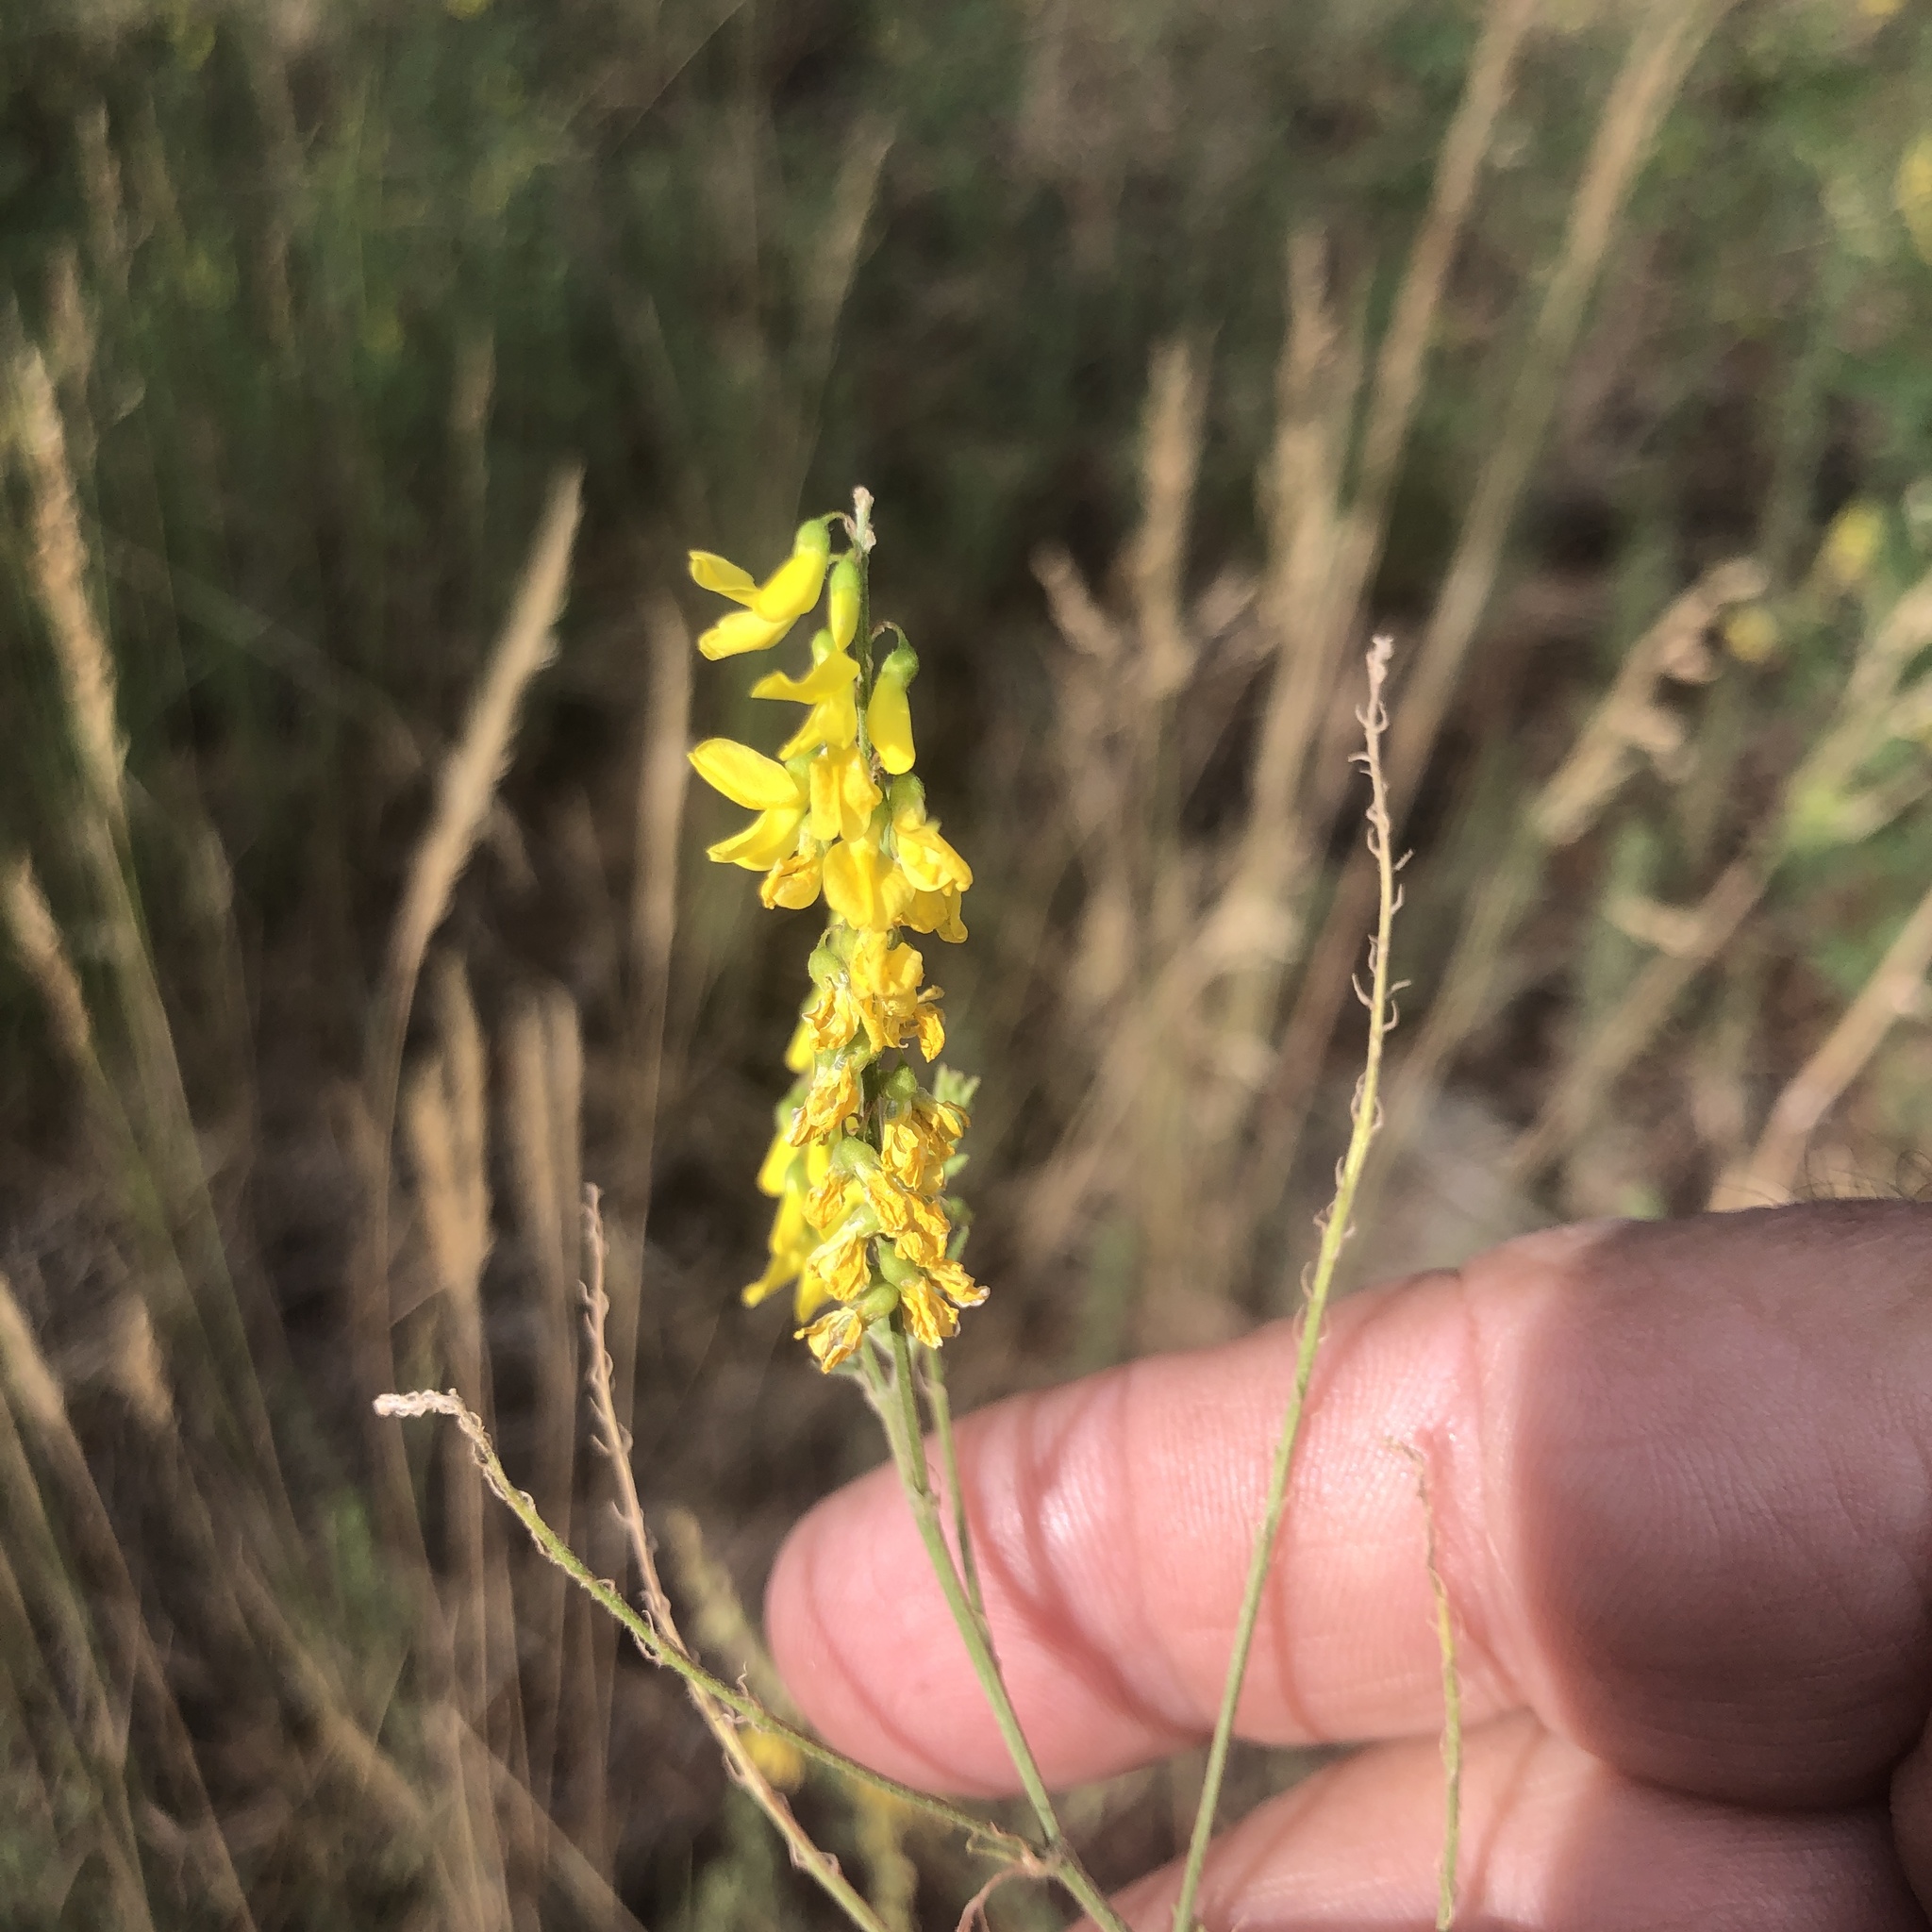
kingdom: Plantae
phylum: Tracheophyta
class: Magnoliopsida
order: Fabales
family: Fabaceae
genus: Melilotus
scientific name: Melilotus officinalis
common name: Sweetclover
